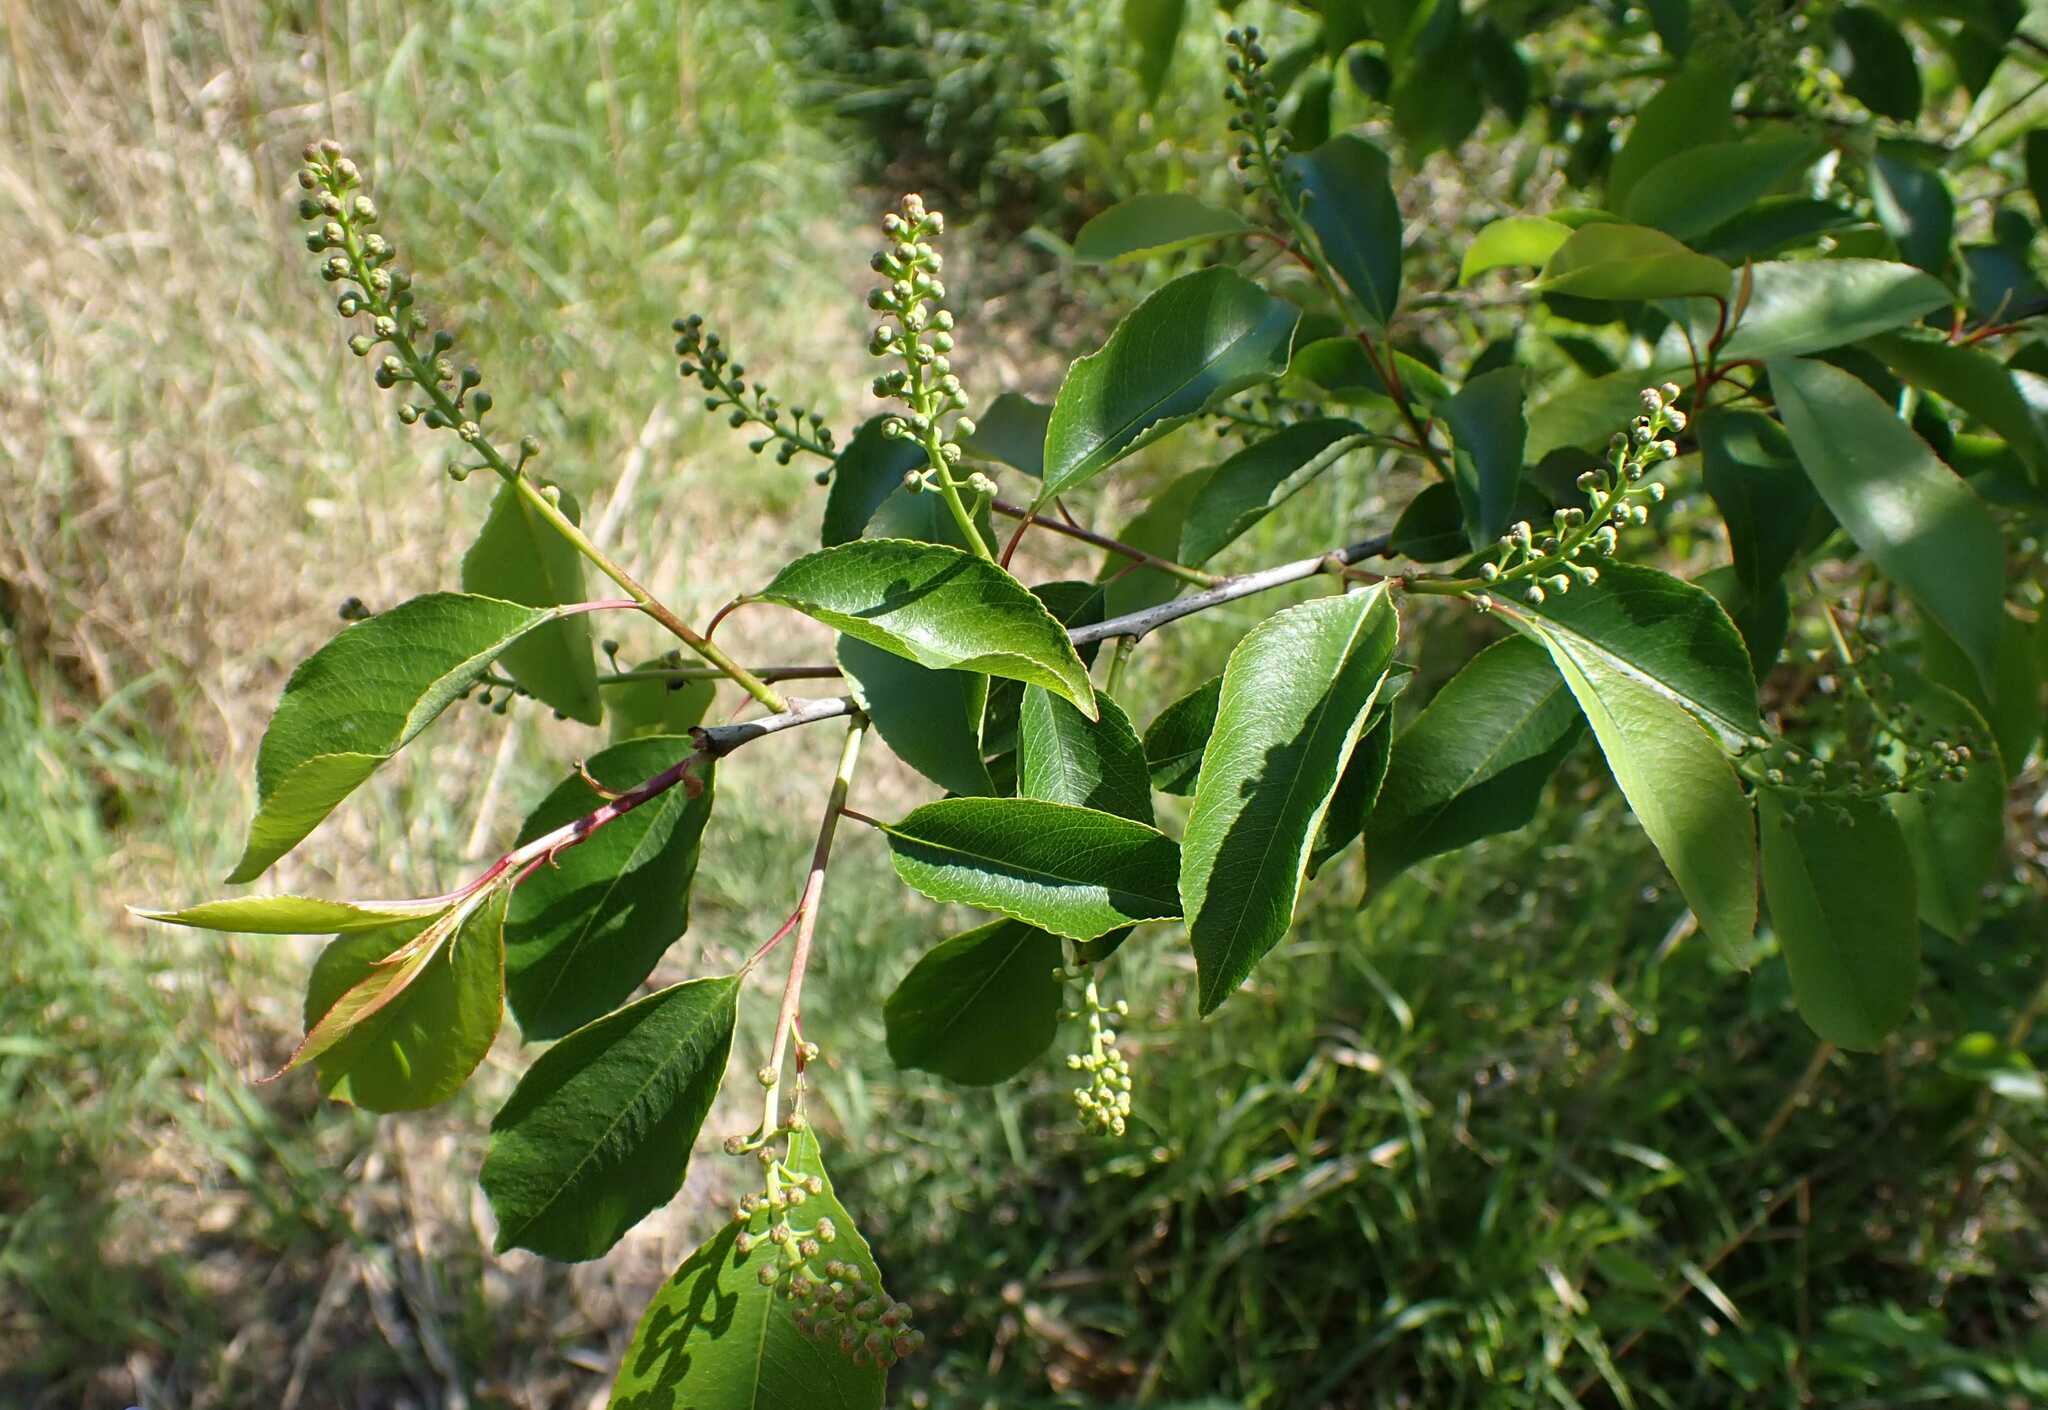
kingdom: Plantae
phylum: Tracheophyta
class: Magnoliopsida
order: Rosales
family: Rosaceae
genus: Prunus
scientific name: Prunus serotina
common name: Black cherry
